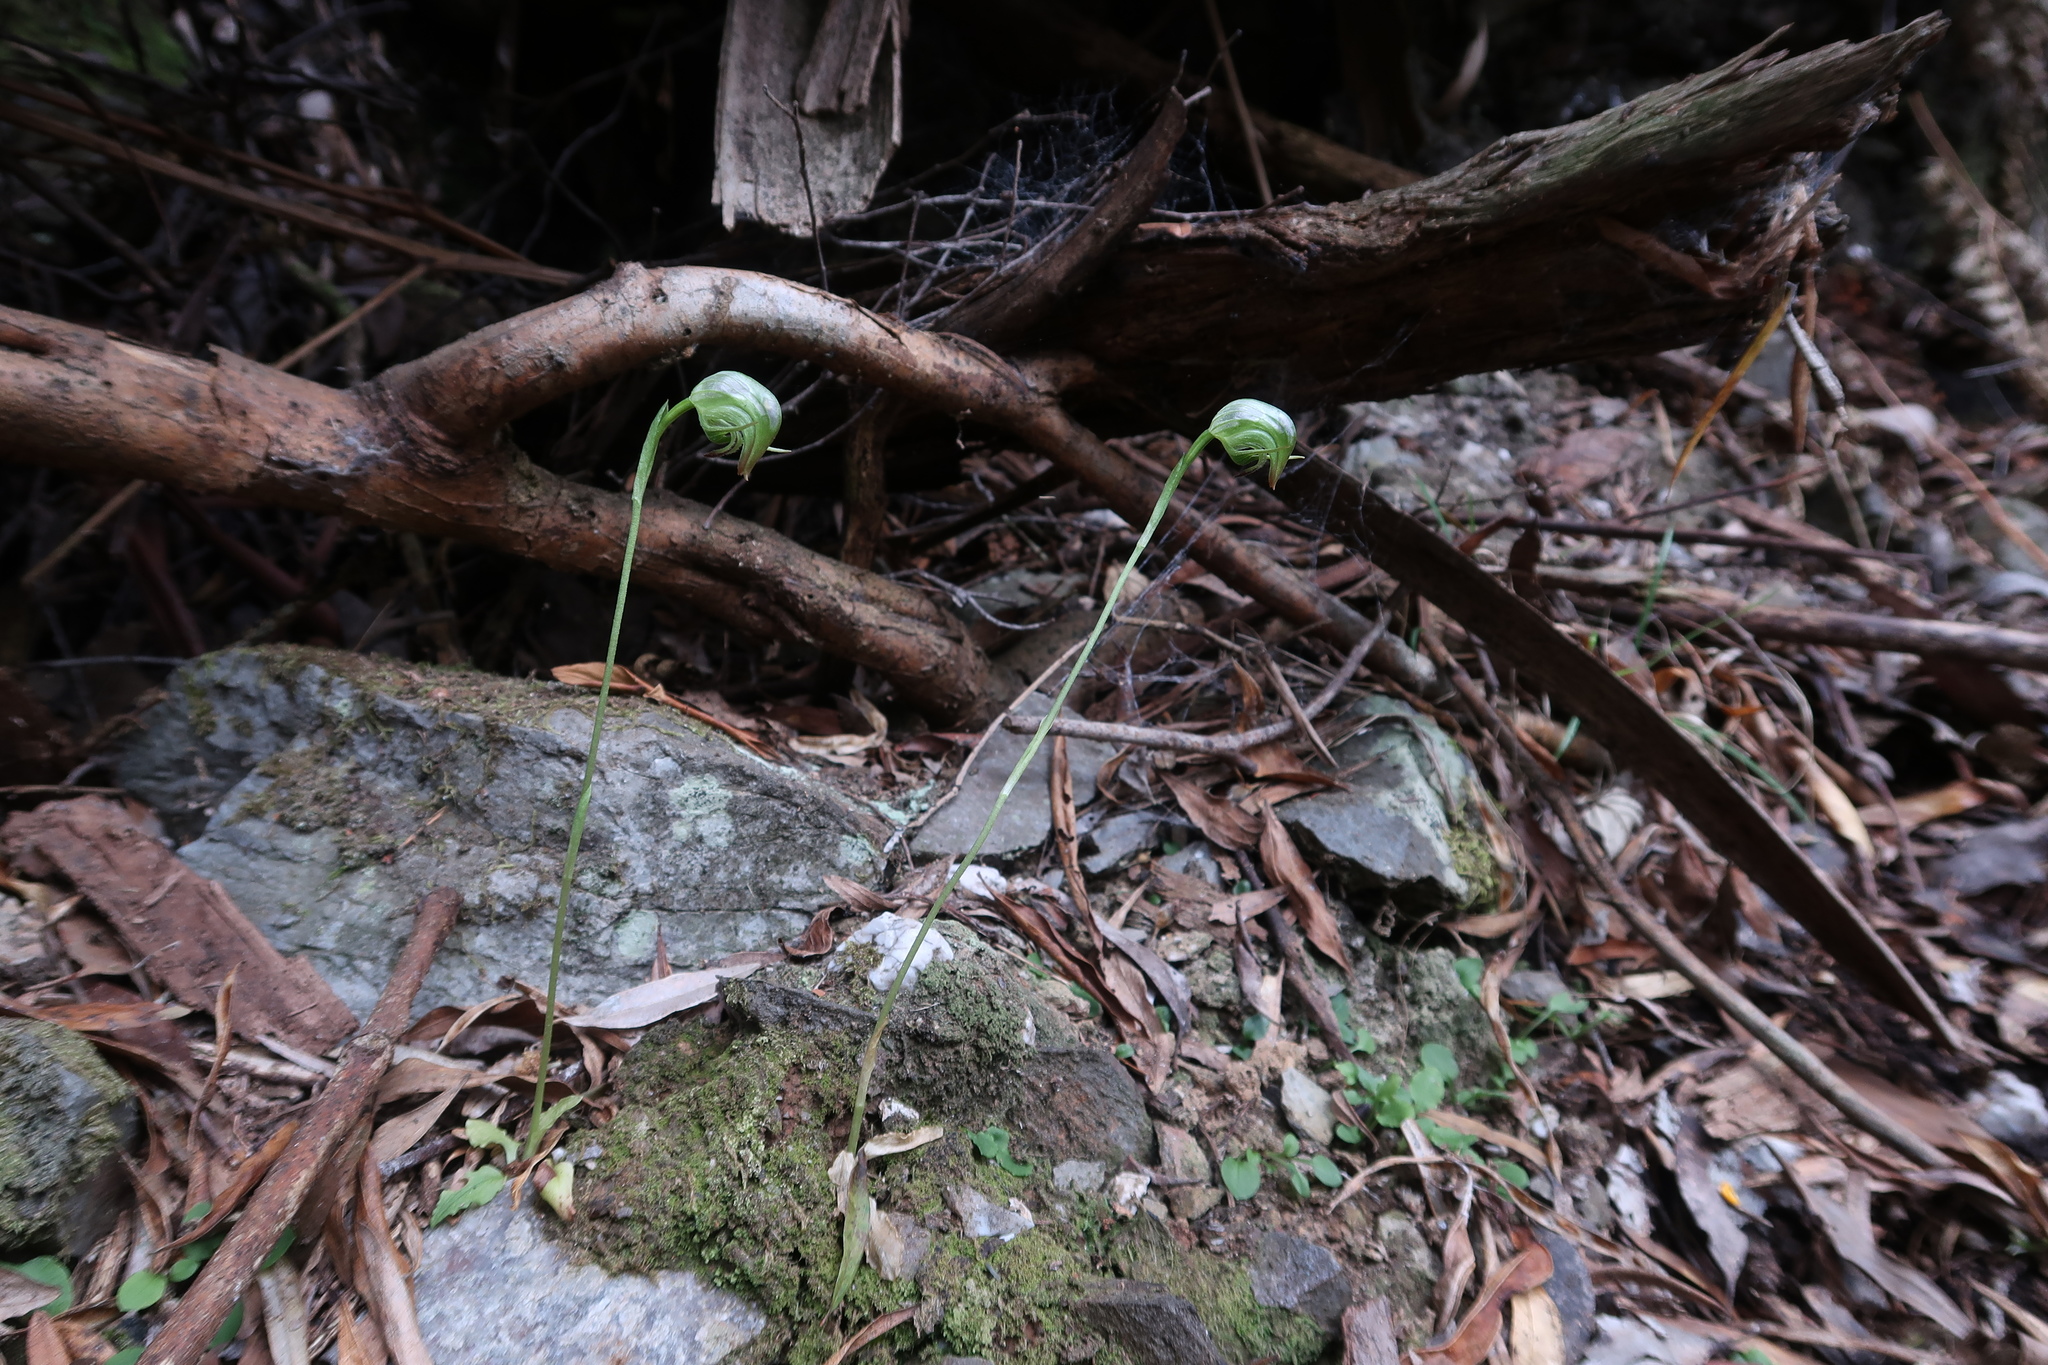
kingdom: Plantae
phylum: Tracheophyta
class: Liliopsida
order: Asparagales
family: Orchidaceae
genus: Pterostylis
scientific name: Pterostylis nutans
